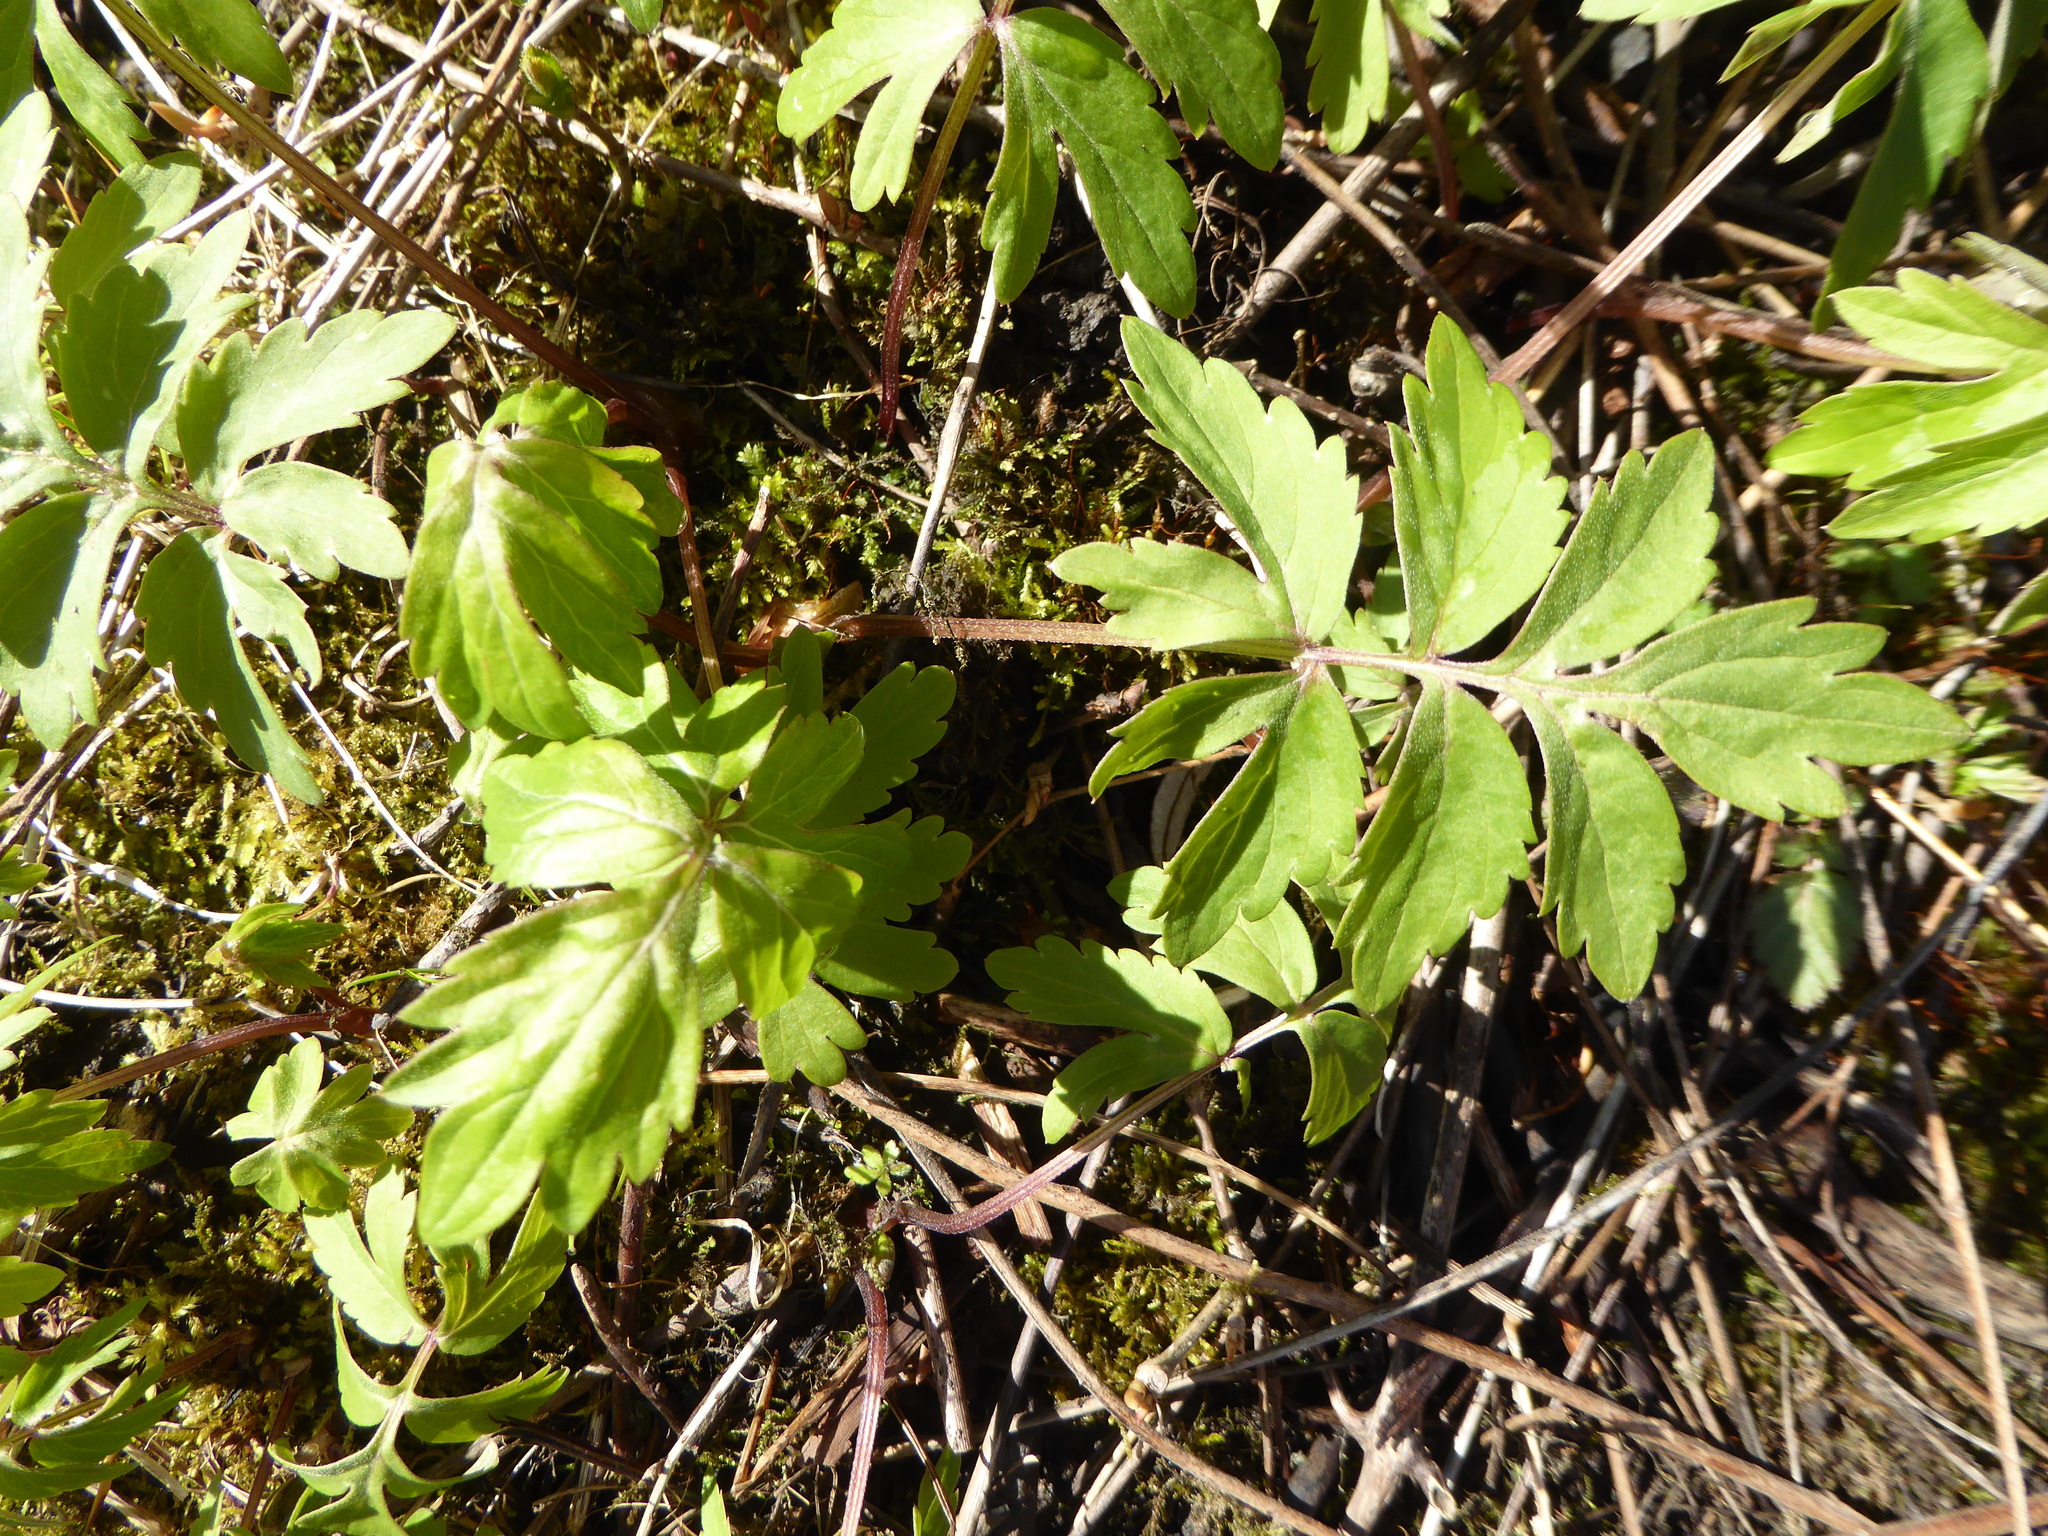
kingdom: Plantae
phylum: Tracheophyta
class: Magnoliopsida
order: Boraginales
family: Hydrophyllaceae
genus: Hydrophyllum
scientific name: Hydrophyllum virginianum
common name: Virginia waterleaf
